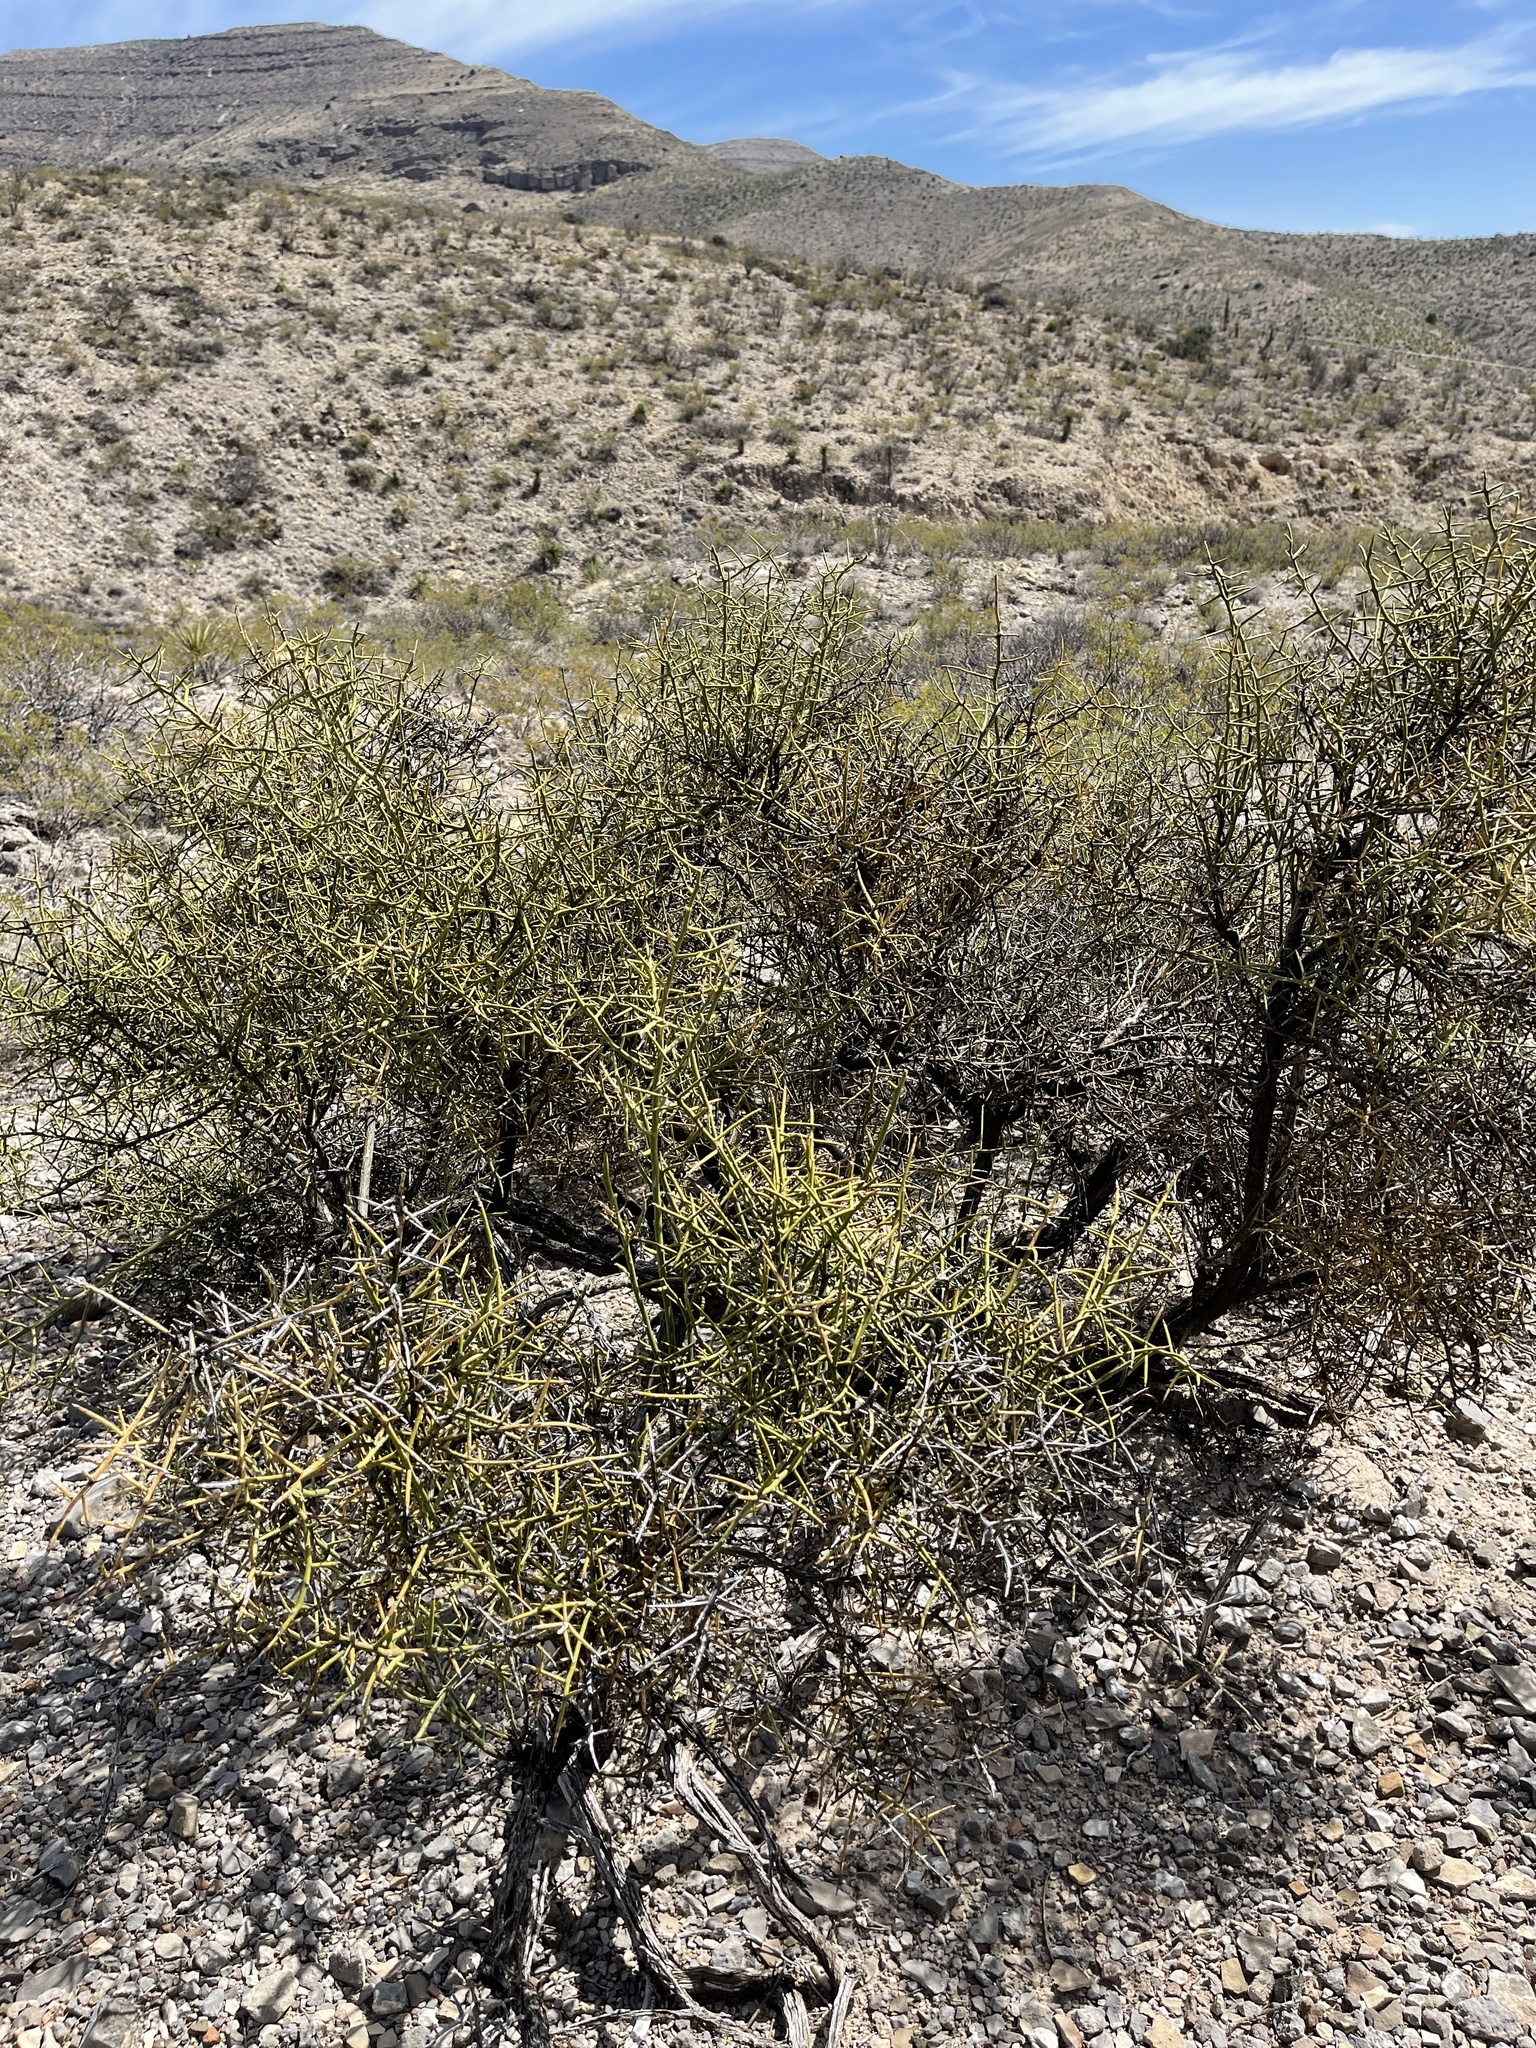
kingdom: Plantae
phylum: Tracheophyta
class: Magnoliopsida
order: Brassicales
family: Koeberliniaceae
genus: Koeberlinia
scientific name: Koeberlinia spinosa
